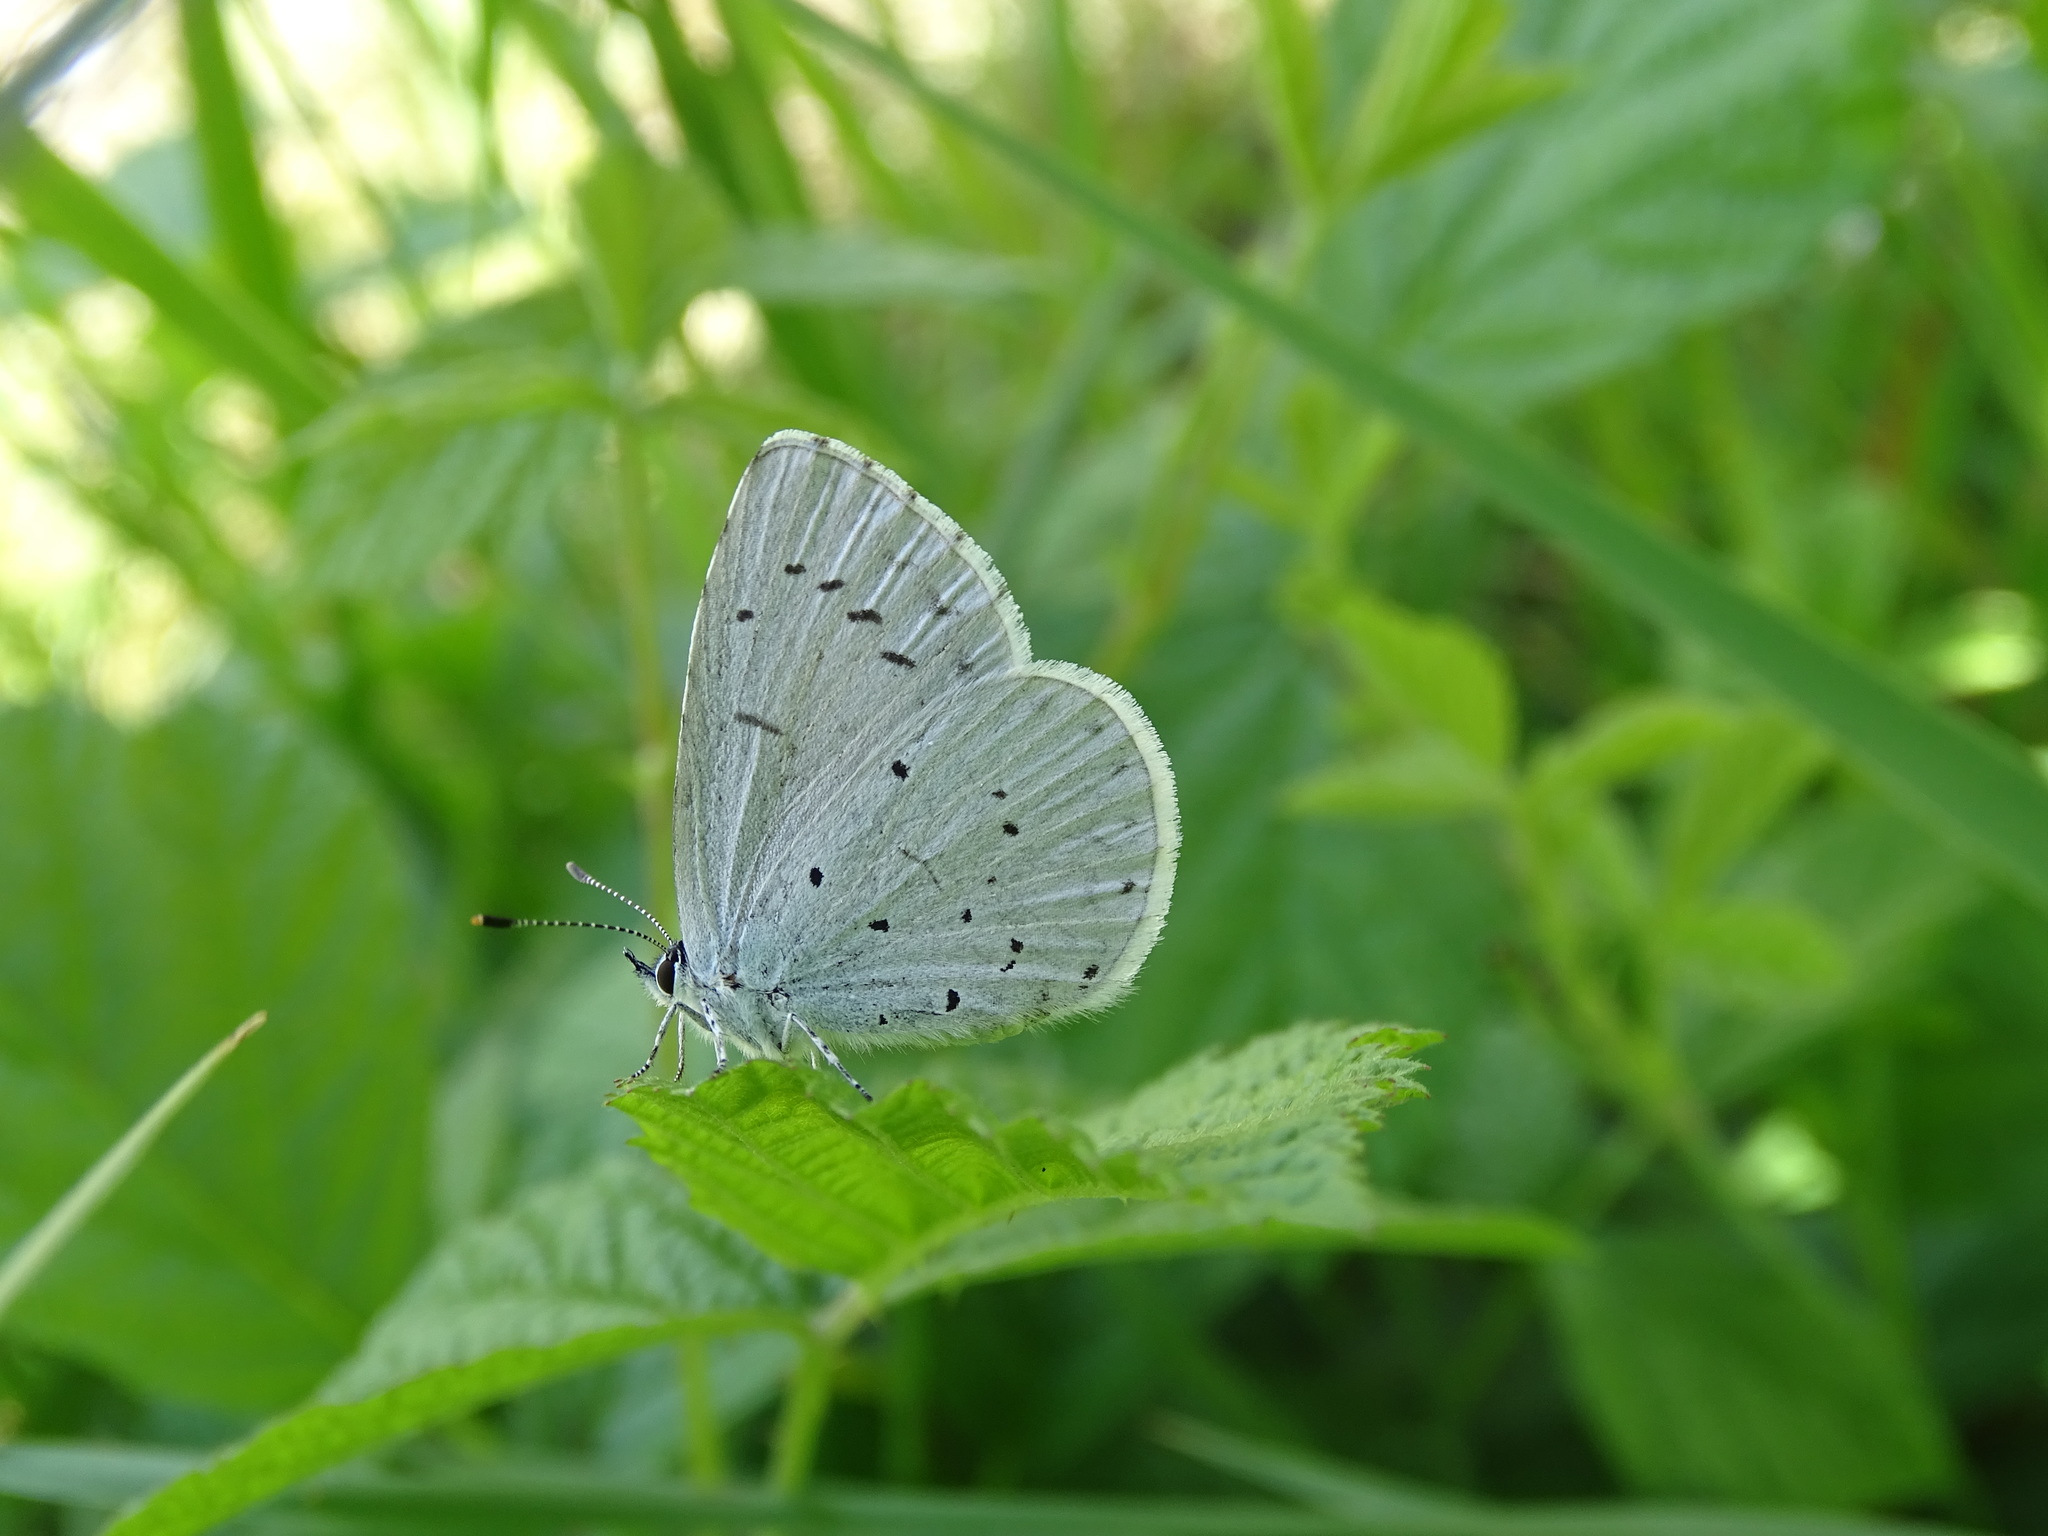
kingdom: Animalia
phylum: Arthropoda
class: Insecta
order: Lepidoptera
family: Lycaenidae
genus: Celastrina
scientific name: Celastrina argiolus
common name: Holly blue
